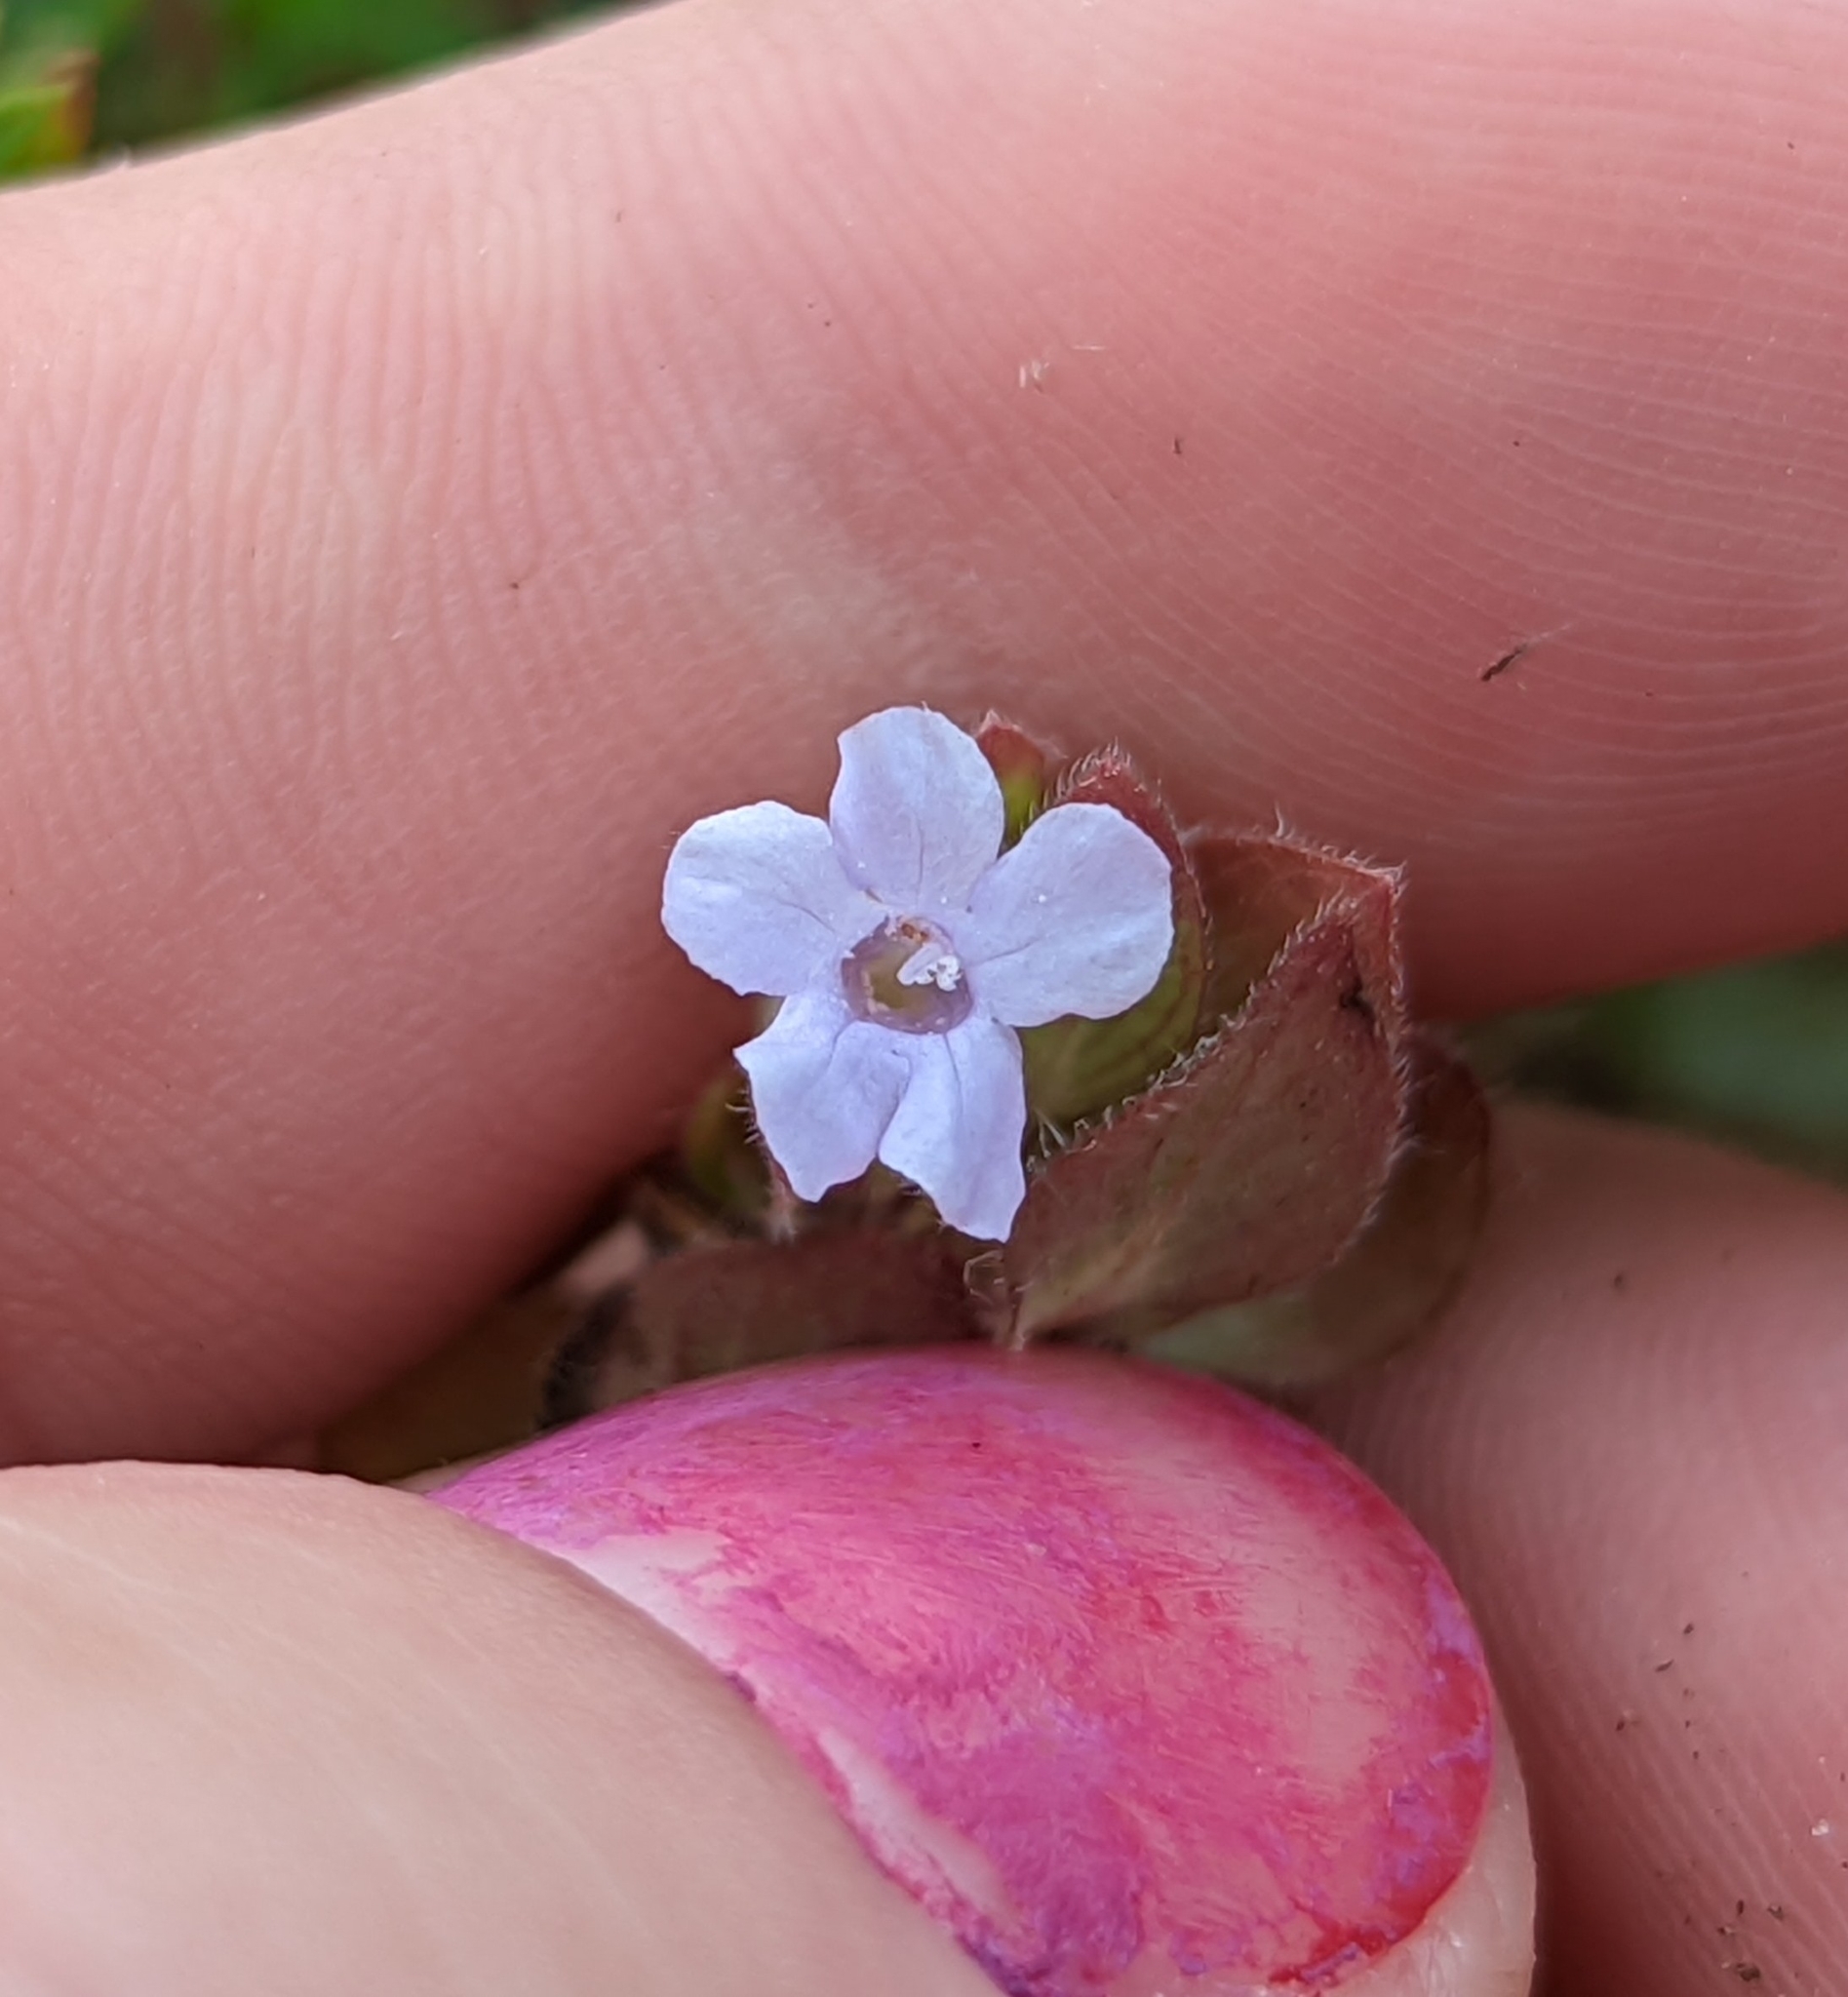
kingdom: Plantae
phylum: Tracheophyta
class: Magnoliopsida
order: Lamiales
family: Acanthaceae
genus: Ruellia
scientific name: Ruellia blechum
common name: Browne's blechum
